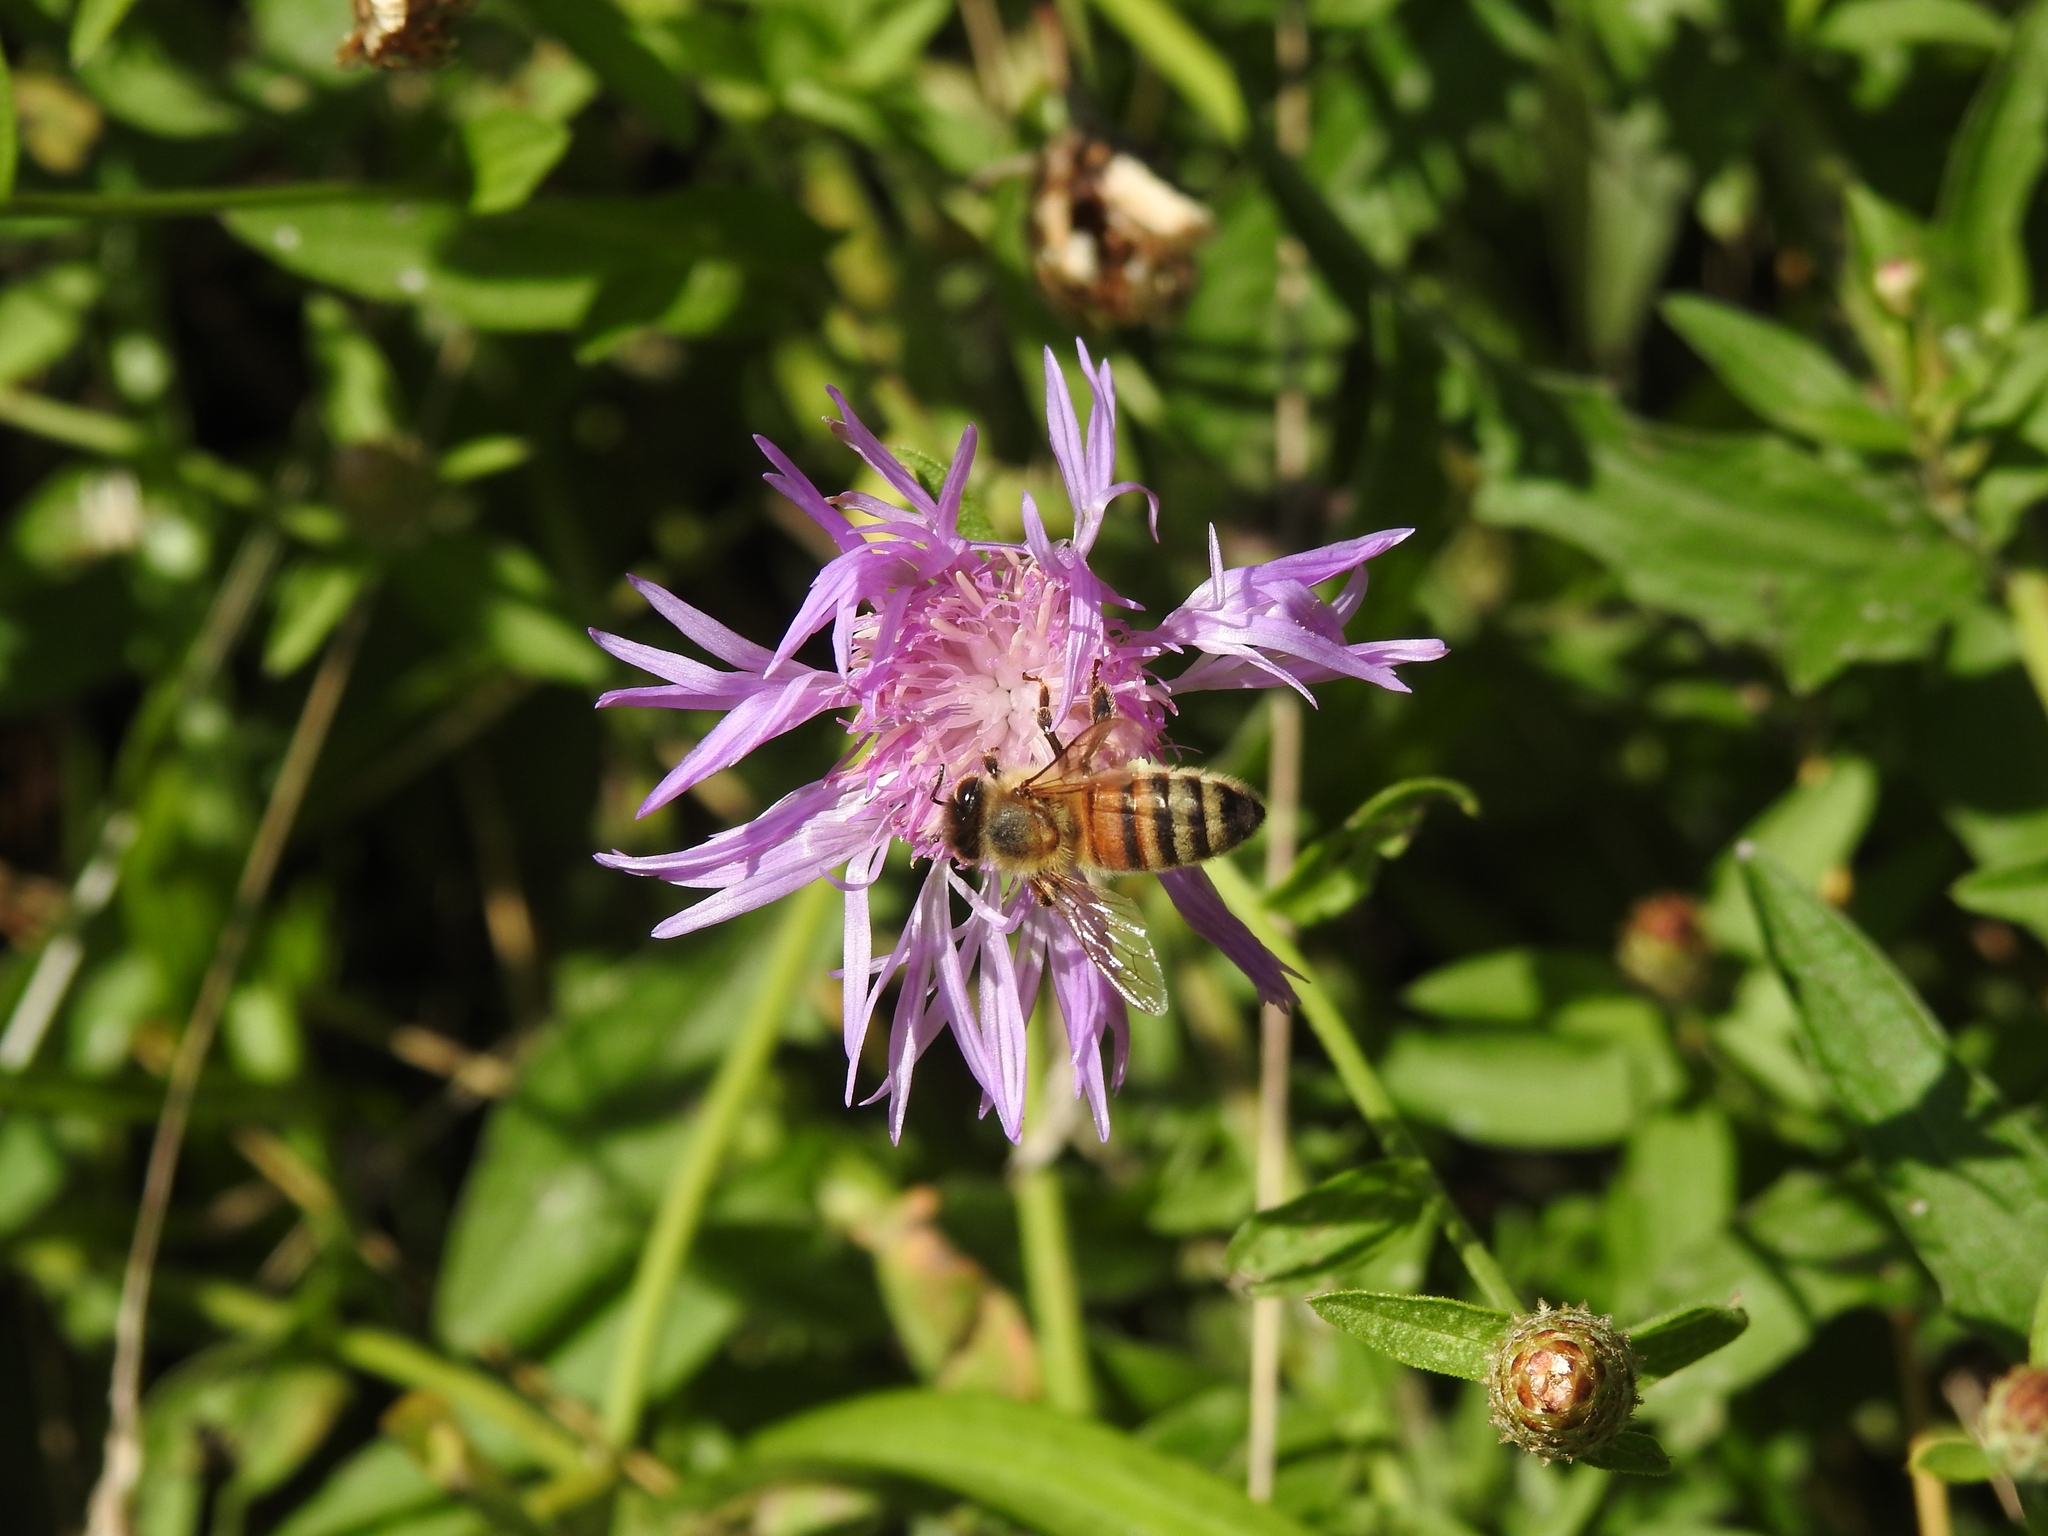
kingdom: Animalia
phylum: Arthropoda
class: Insecta
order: Hymenoptera
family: Apidae
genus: Apis
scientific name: Apis mellifera
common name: Honey bee
